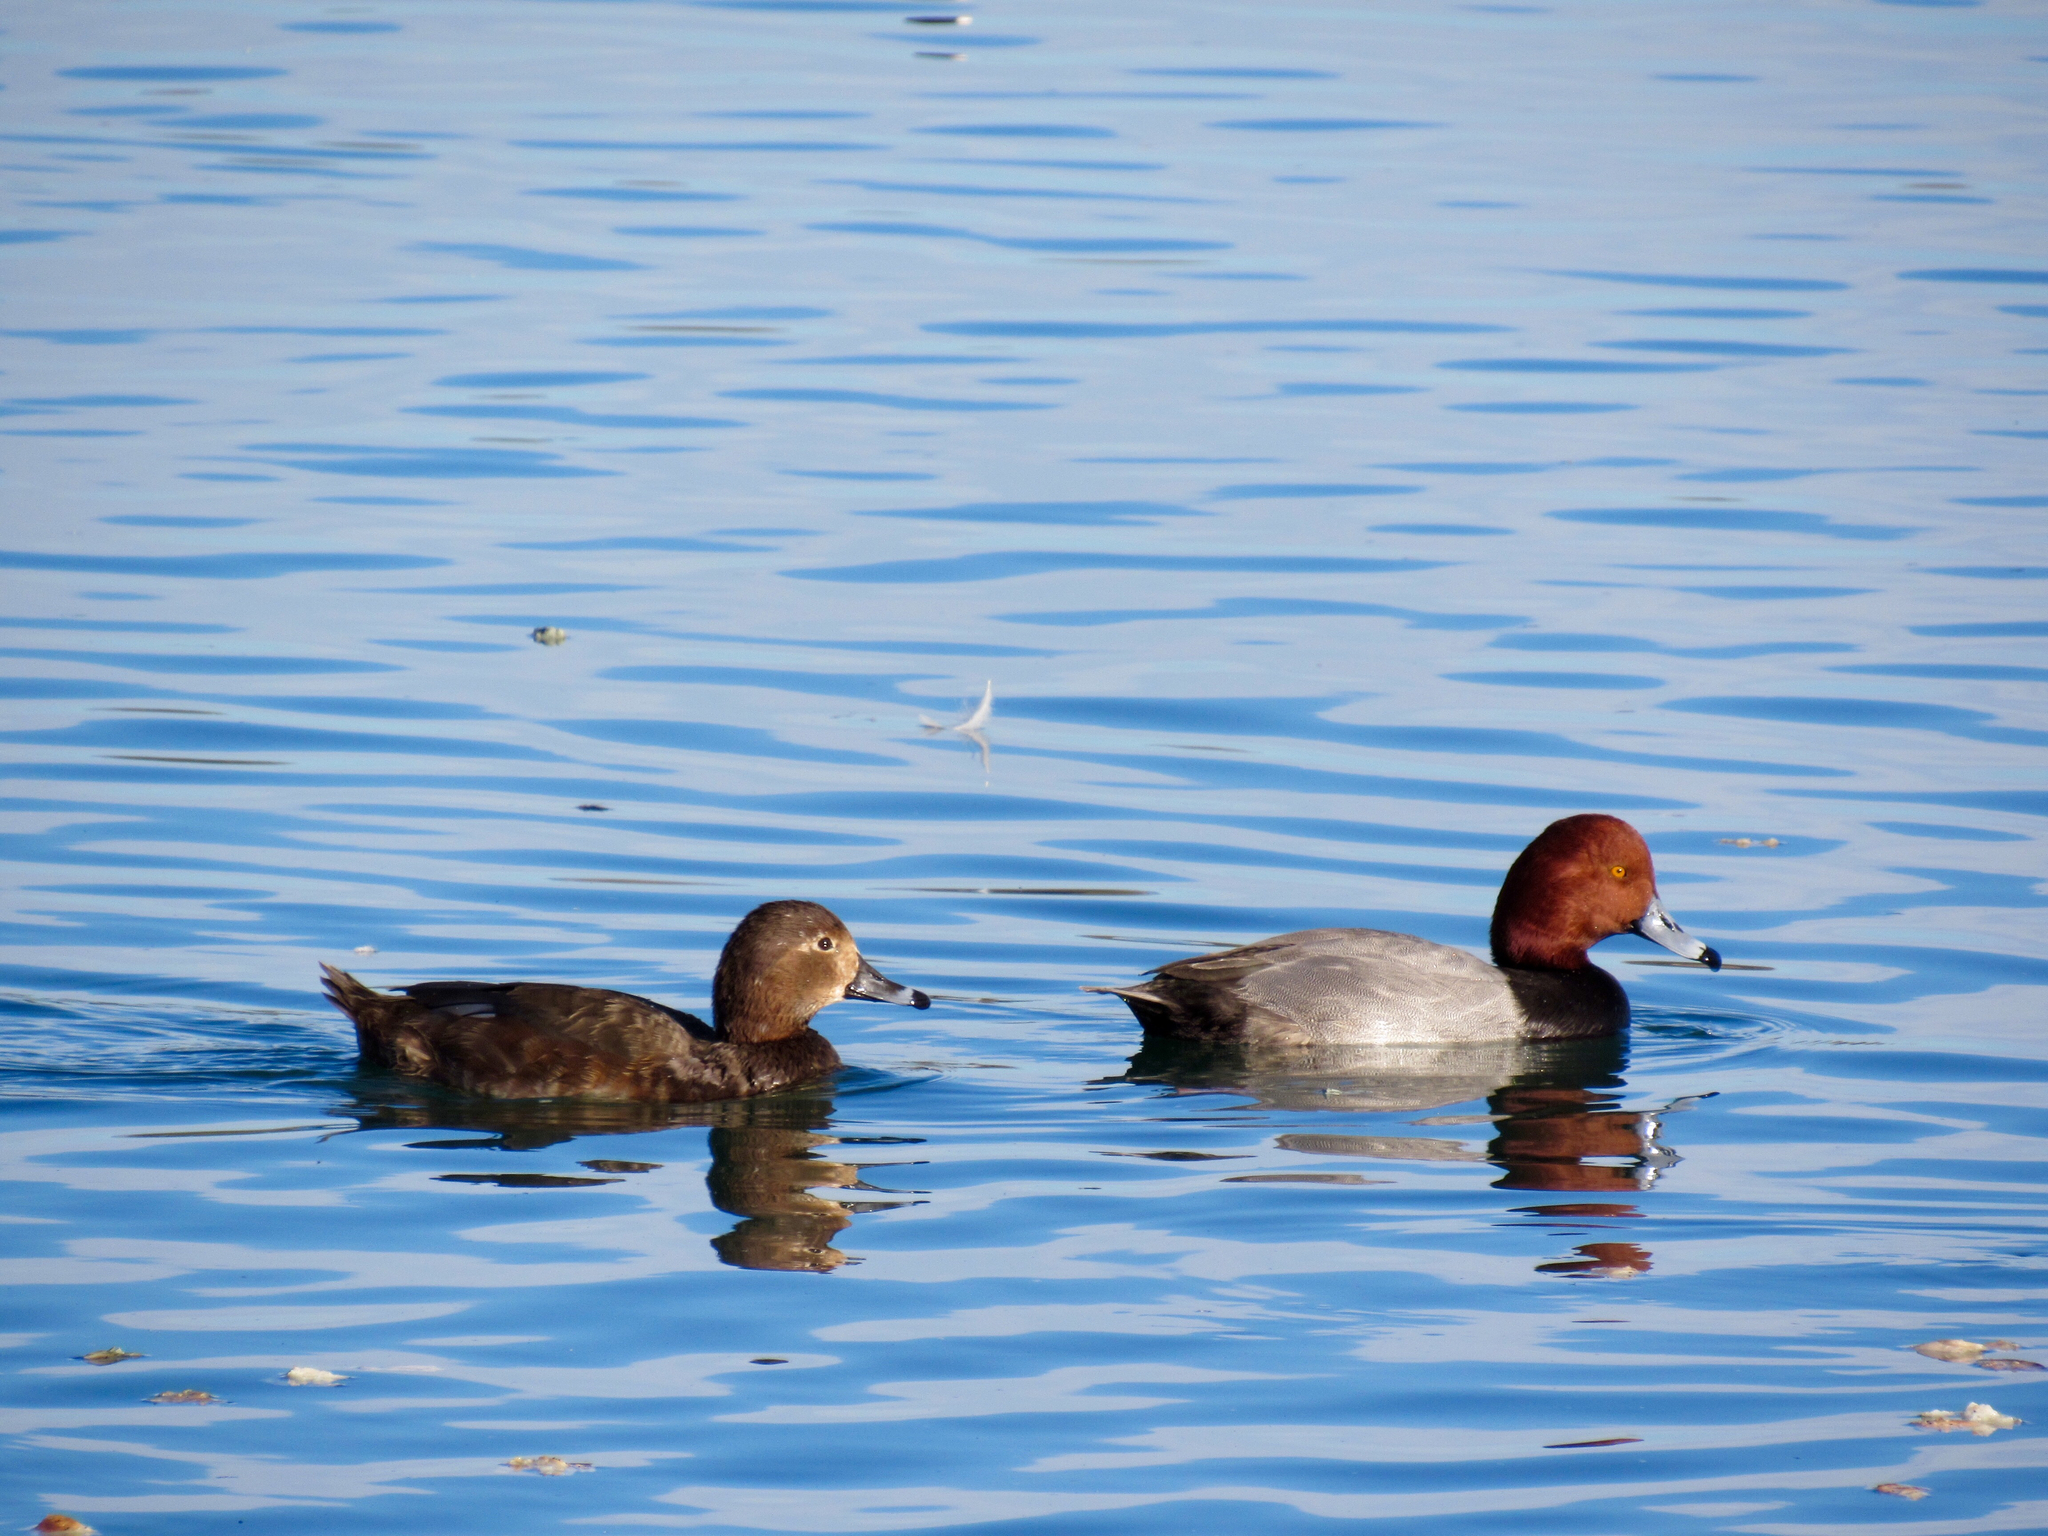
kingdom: Animalia
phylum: Chordata
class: Aves
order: Anseriformes
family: Anatidae
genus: Aythya
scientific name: Aythya americana
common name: Redhead
